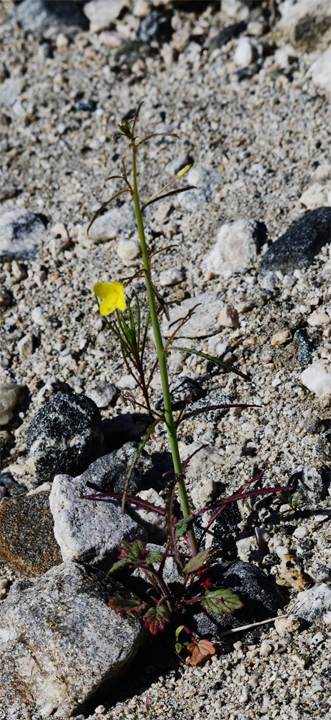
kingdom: Plantae
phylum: Tracheophyta
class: Magnoliopsida
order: Myrtales
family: Onagraceae
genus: Eulobus
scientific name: Eulobus californicus
